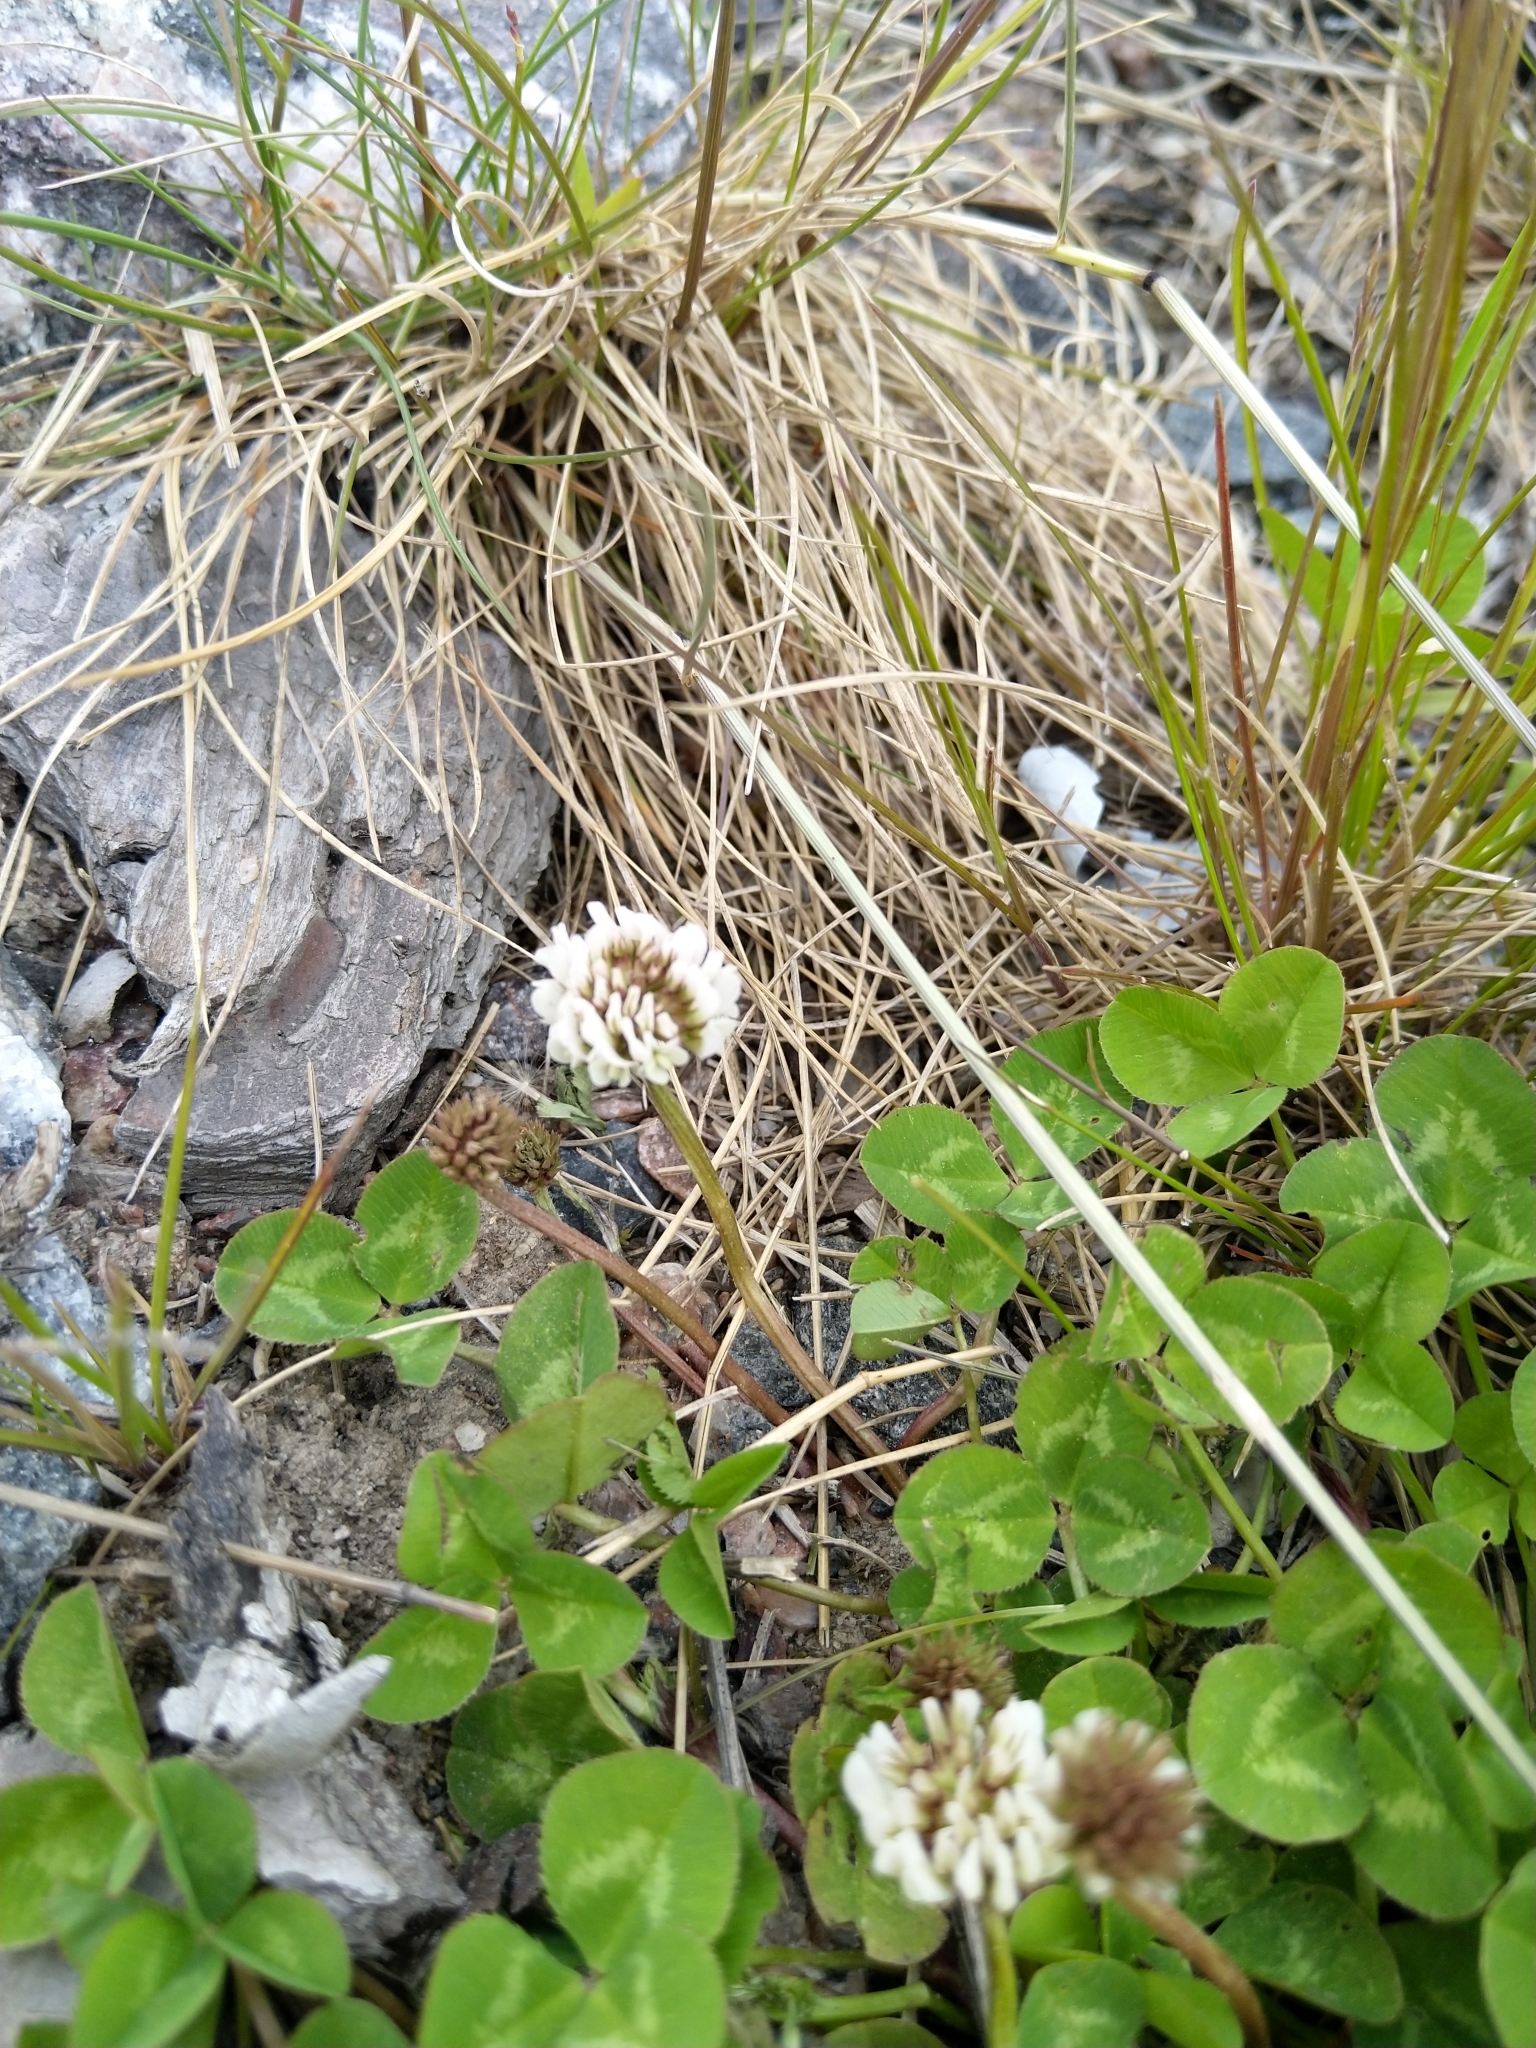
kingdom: Plantae
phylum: Tracheophyta
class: Magnoliopsida
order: Fabales
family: Fabaceae
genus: Trifolium
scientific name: Trifolium repens
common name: White clover
